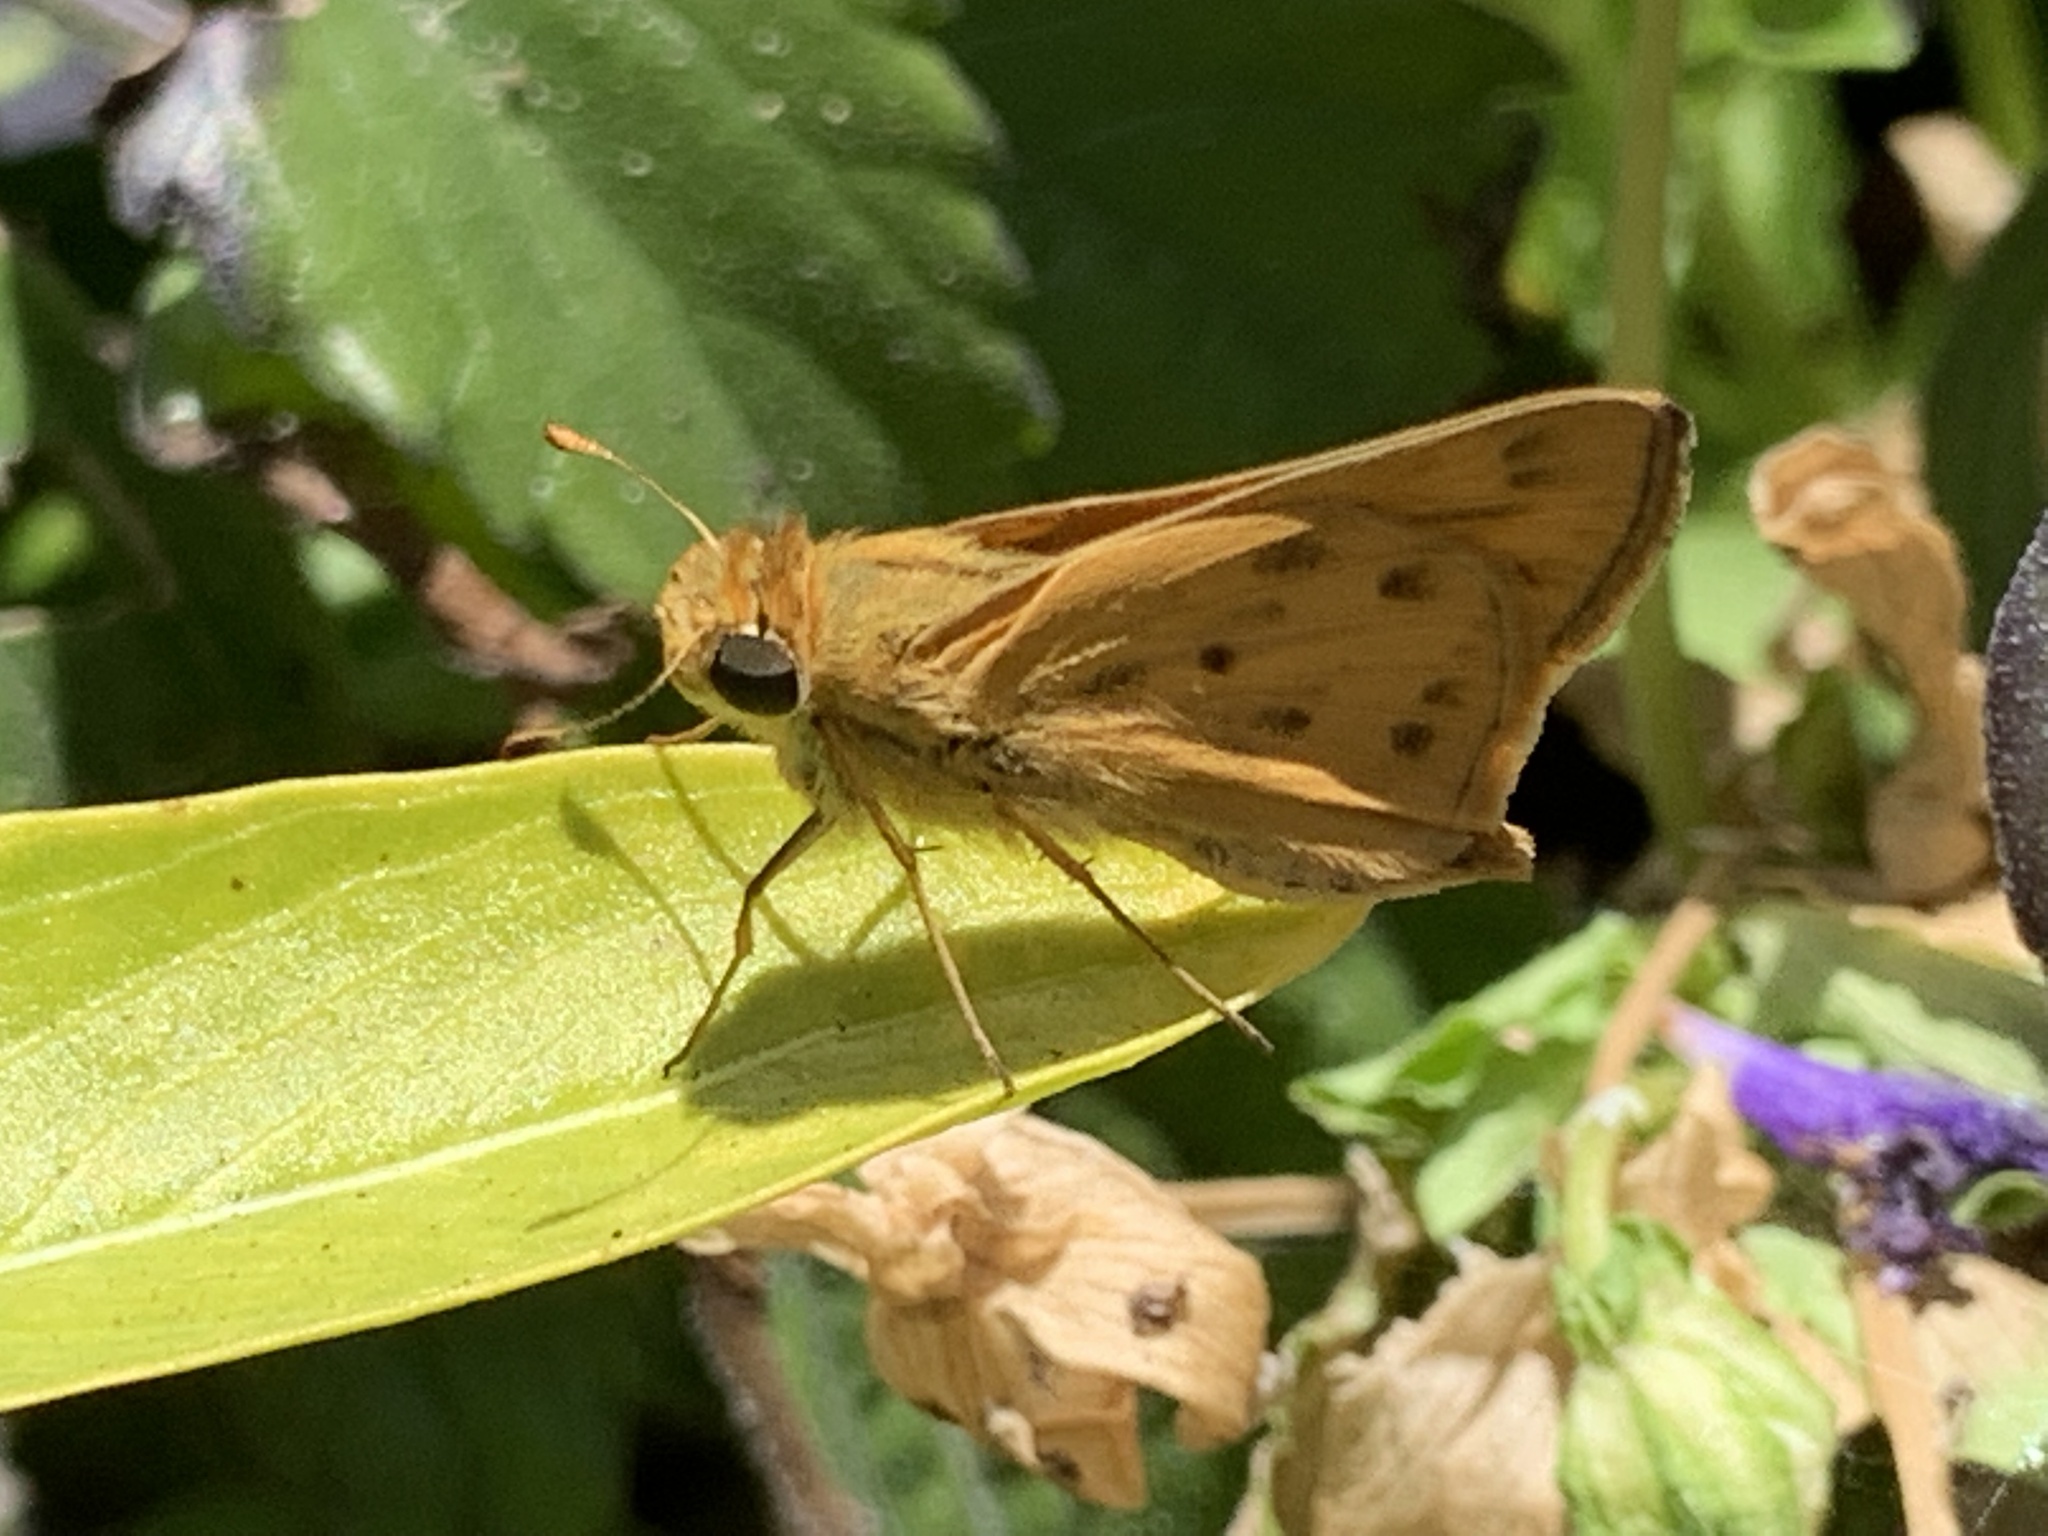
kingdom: Animalia
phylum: Arthropoda
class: Insecta
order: Lepidoptera
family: Hesperiidae
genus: Hylephila
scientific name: Hylephila phyleus
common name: Fiery skipper
